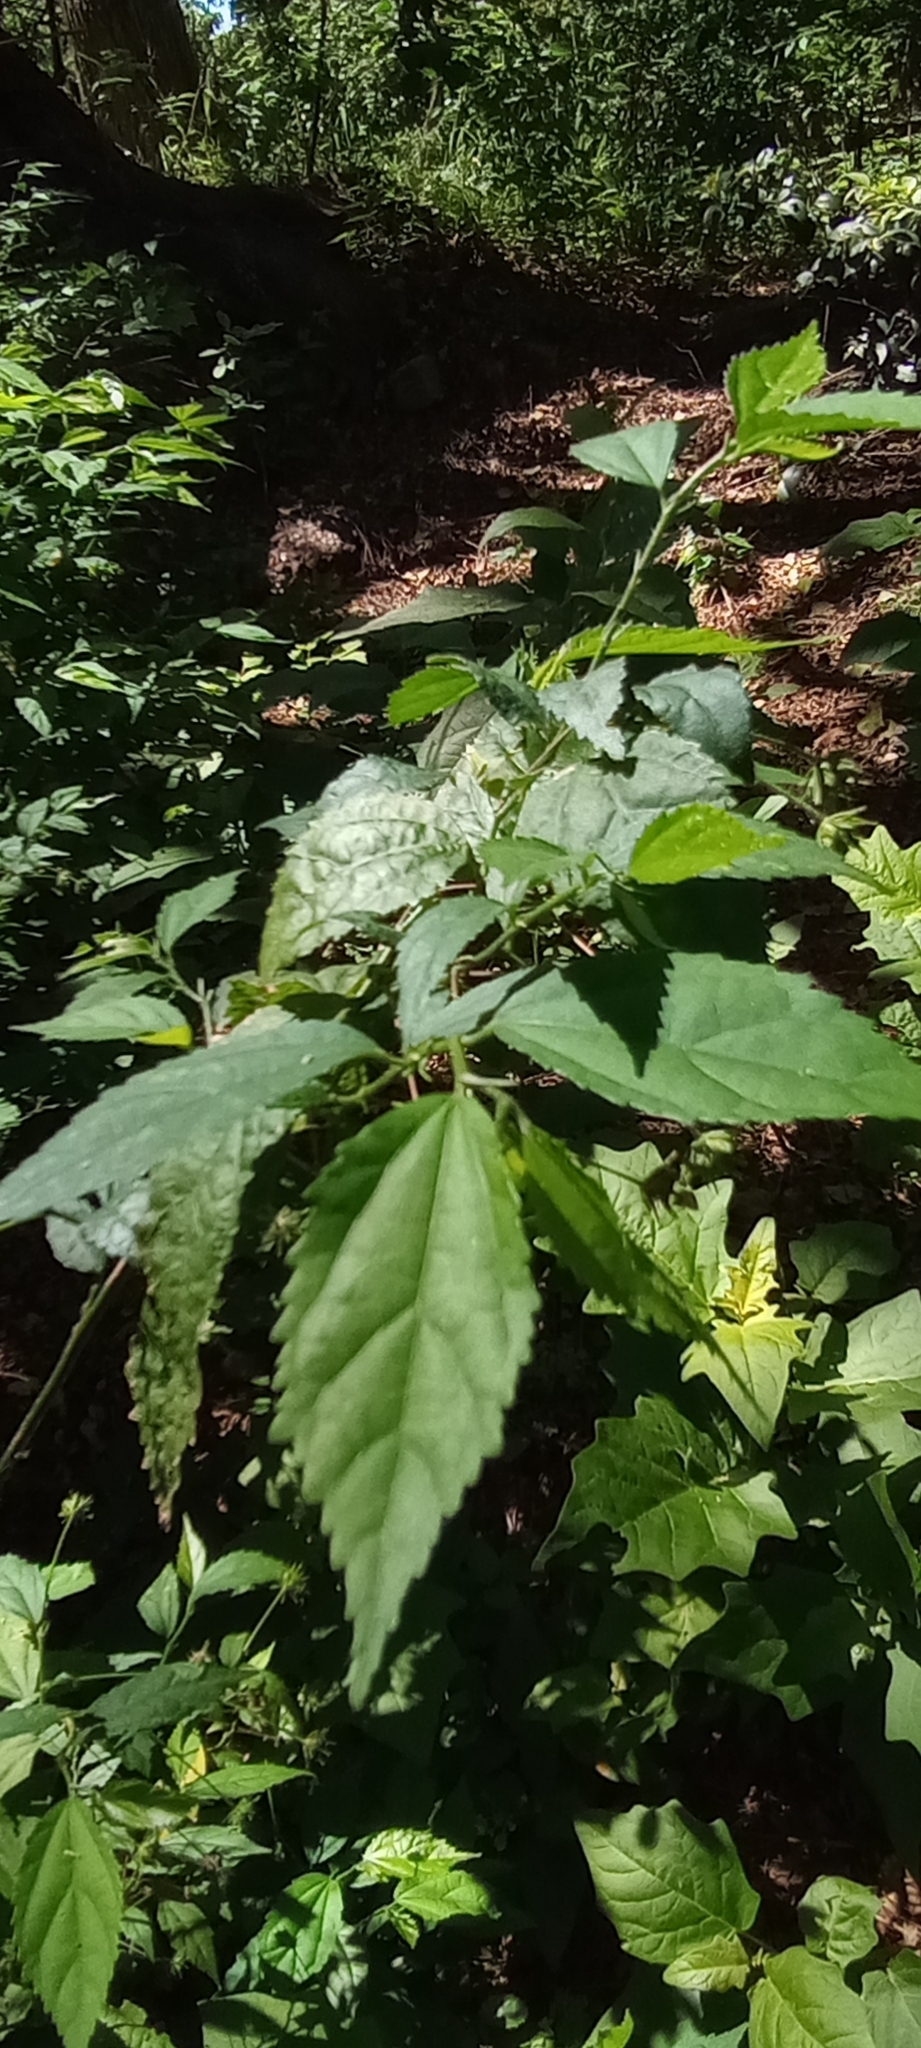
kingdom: Plantae
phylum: Tracheophyta
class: Magnoliopsida
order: Malvales
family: Malvaceae
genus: Pavonia
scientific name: Pavonia sepium
